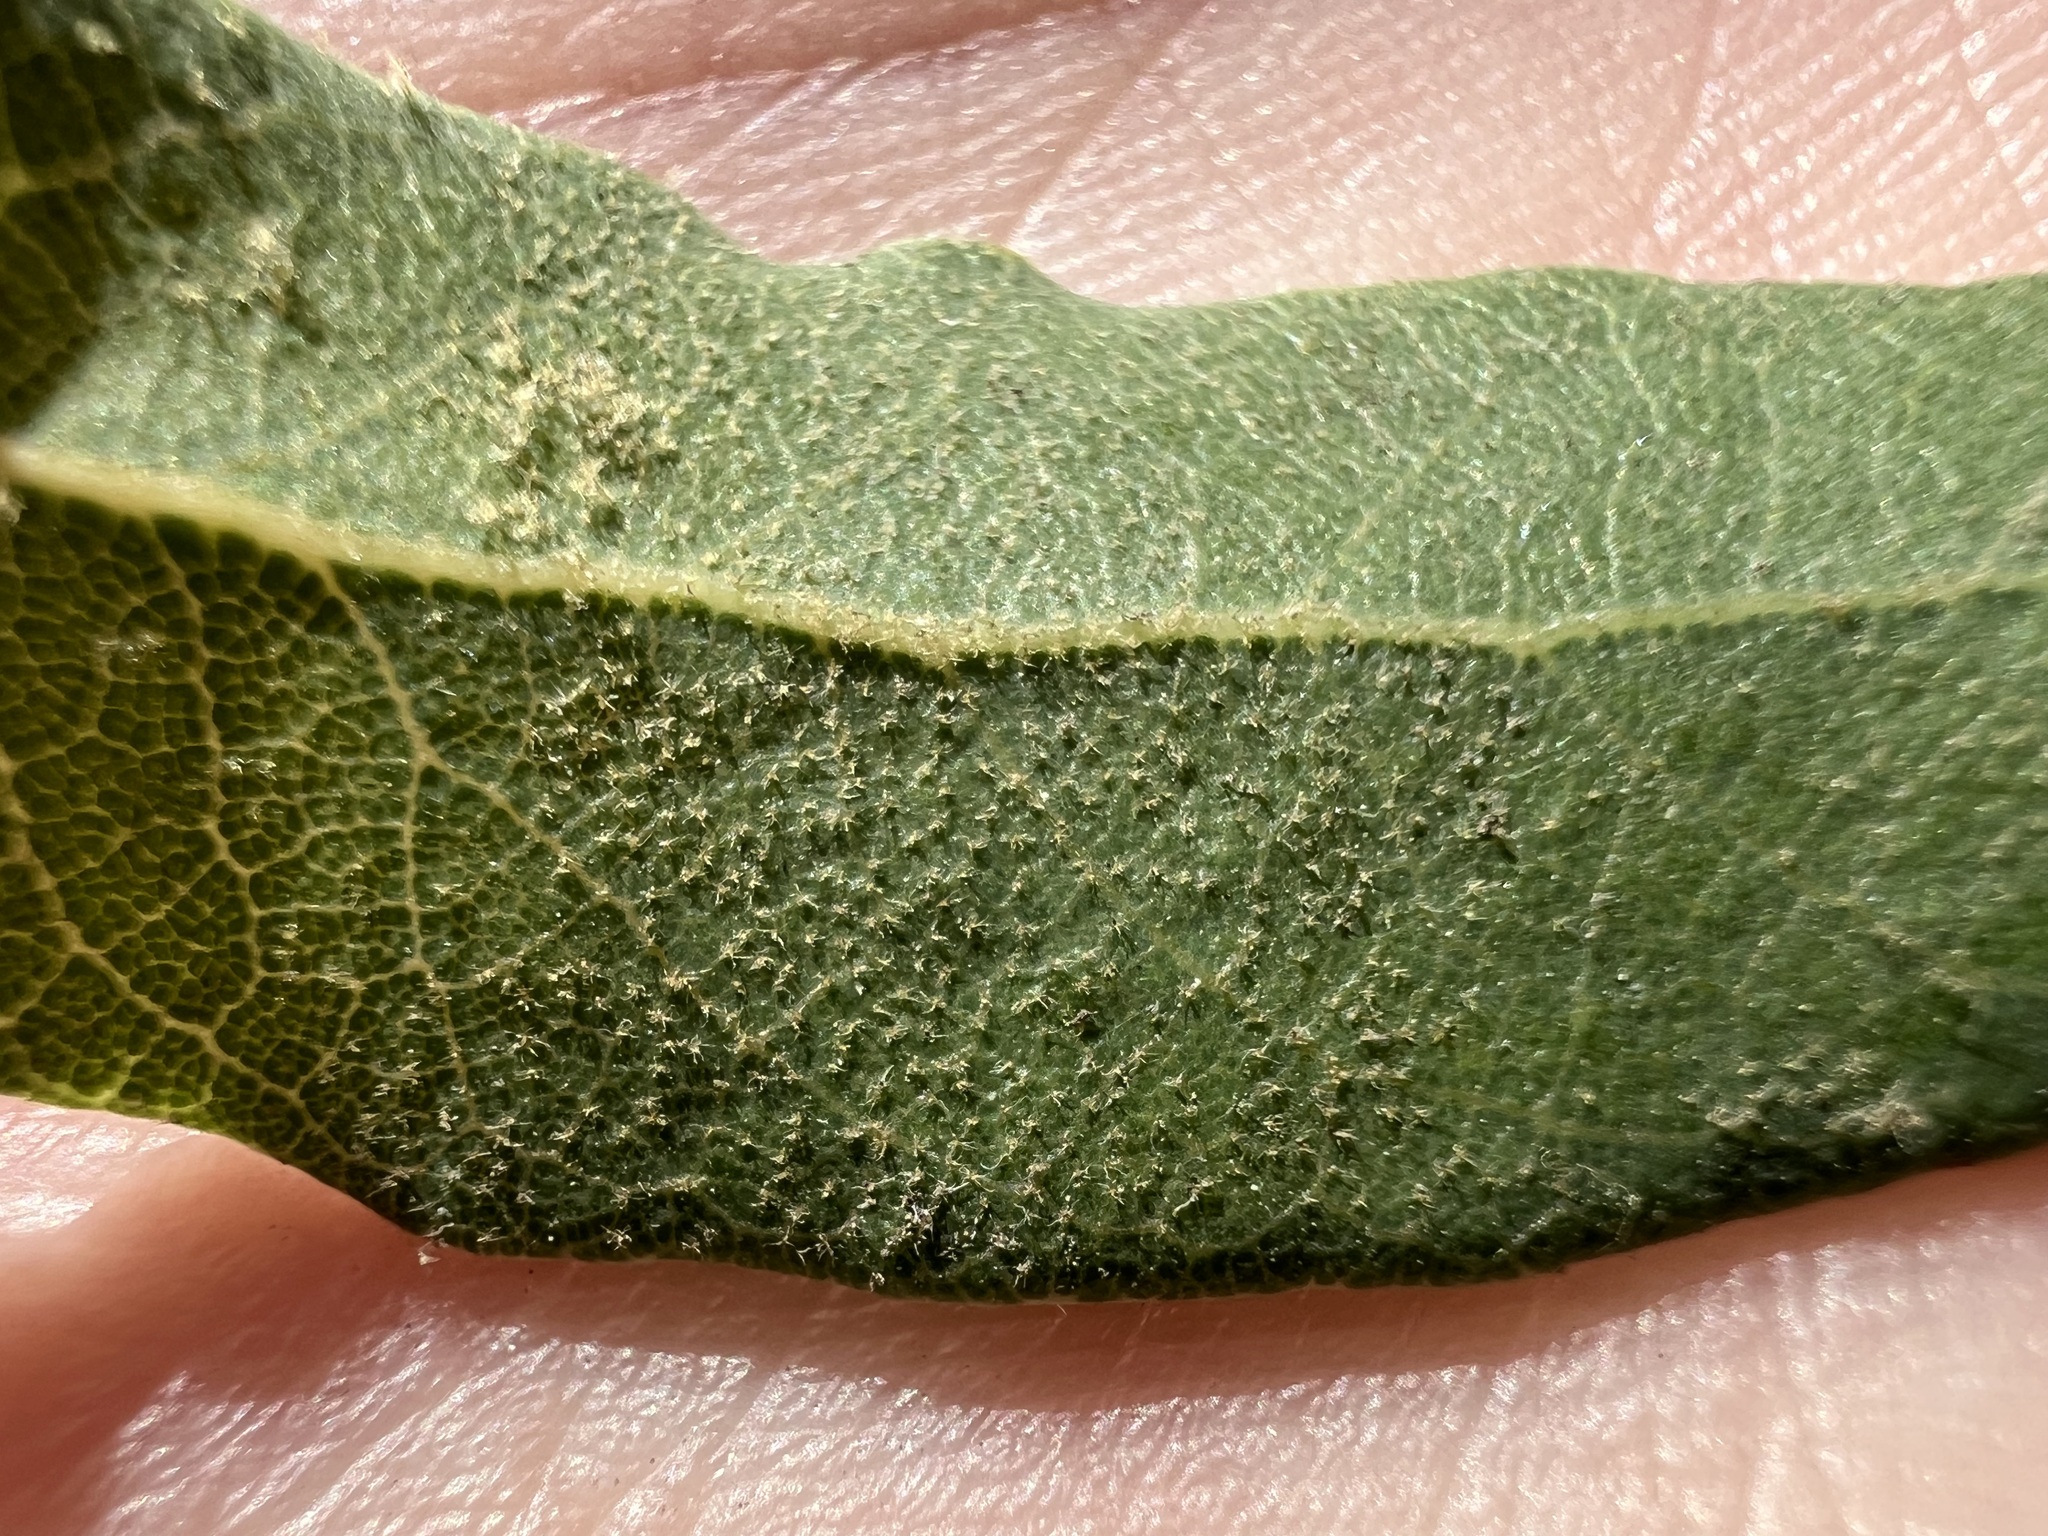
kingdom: Plantae
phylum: Tracheophyta
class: Magnoliopsida
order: Fagales
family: Fagaceae
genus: Quercus
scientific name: Quercus engelmannii
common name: Engelmann oak
